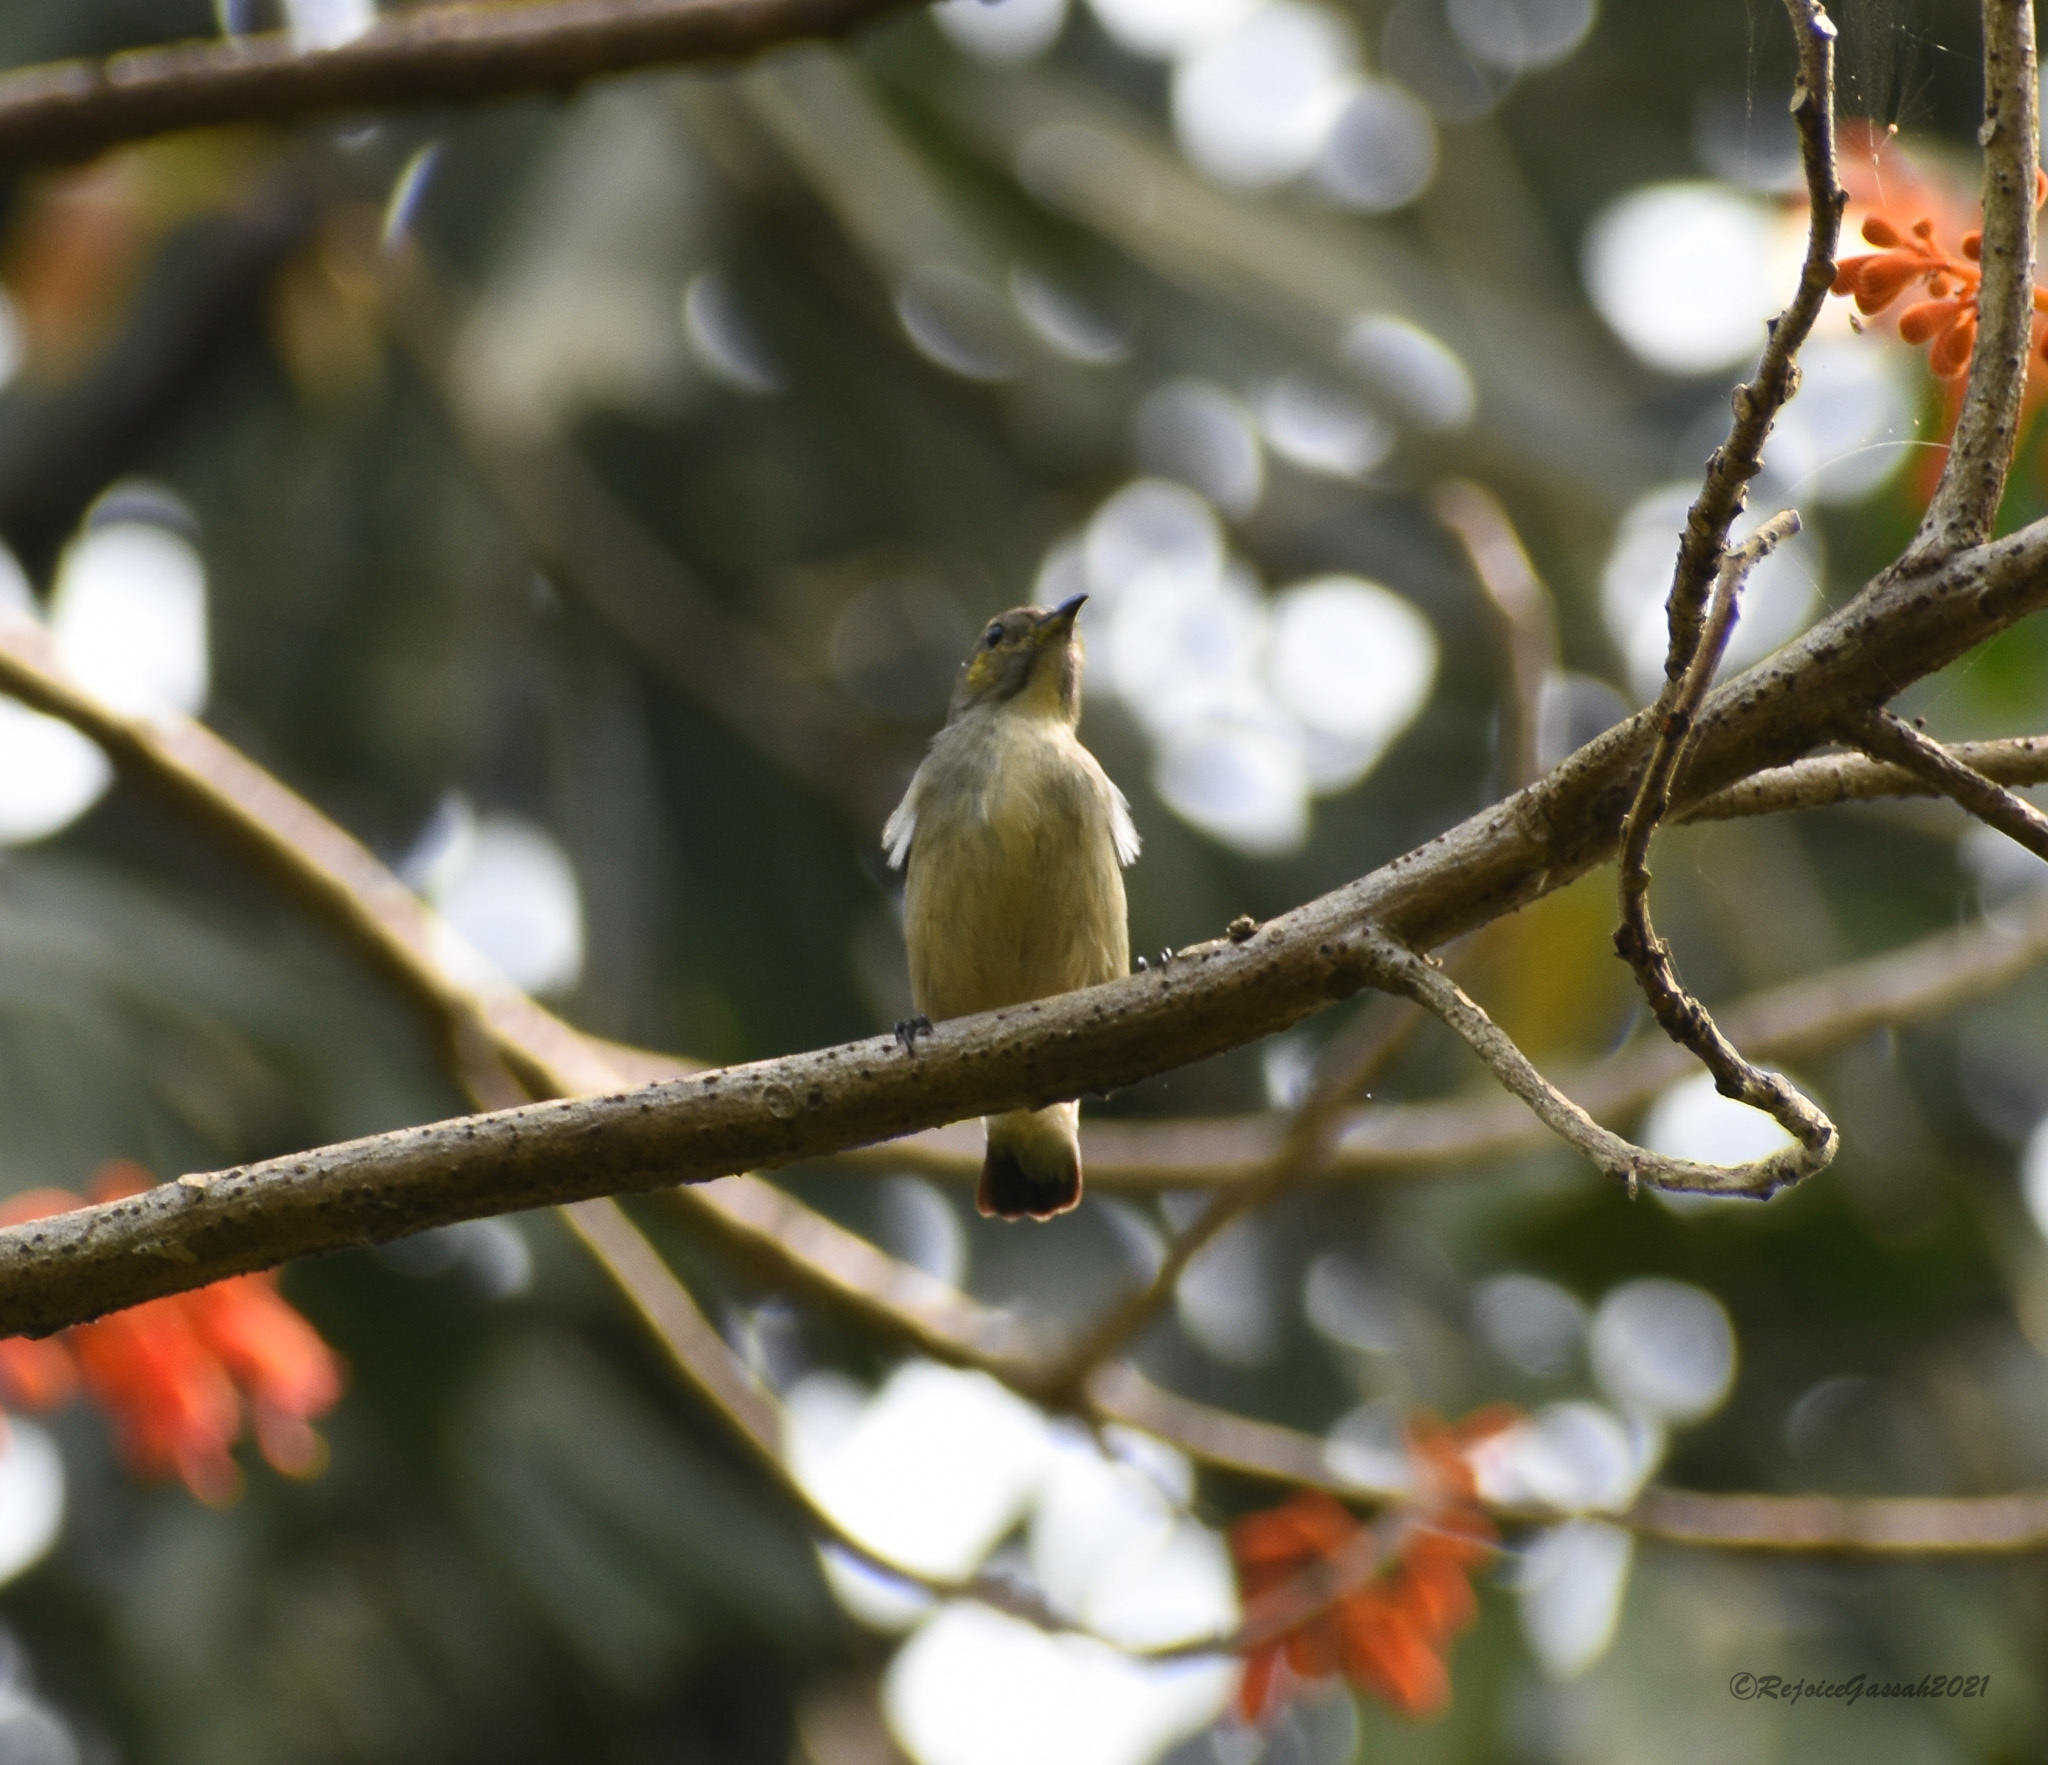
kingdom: Animalia
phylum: Chordata
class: Aves
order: Passeriformes
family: Dicaeidae
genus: Dicaeum
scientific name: Dicaeum cruentatum
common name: Scarlet-backed flowerpecker
